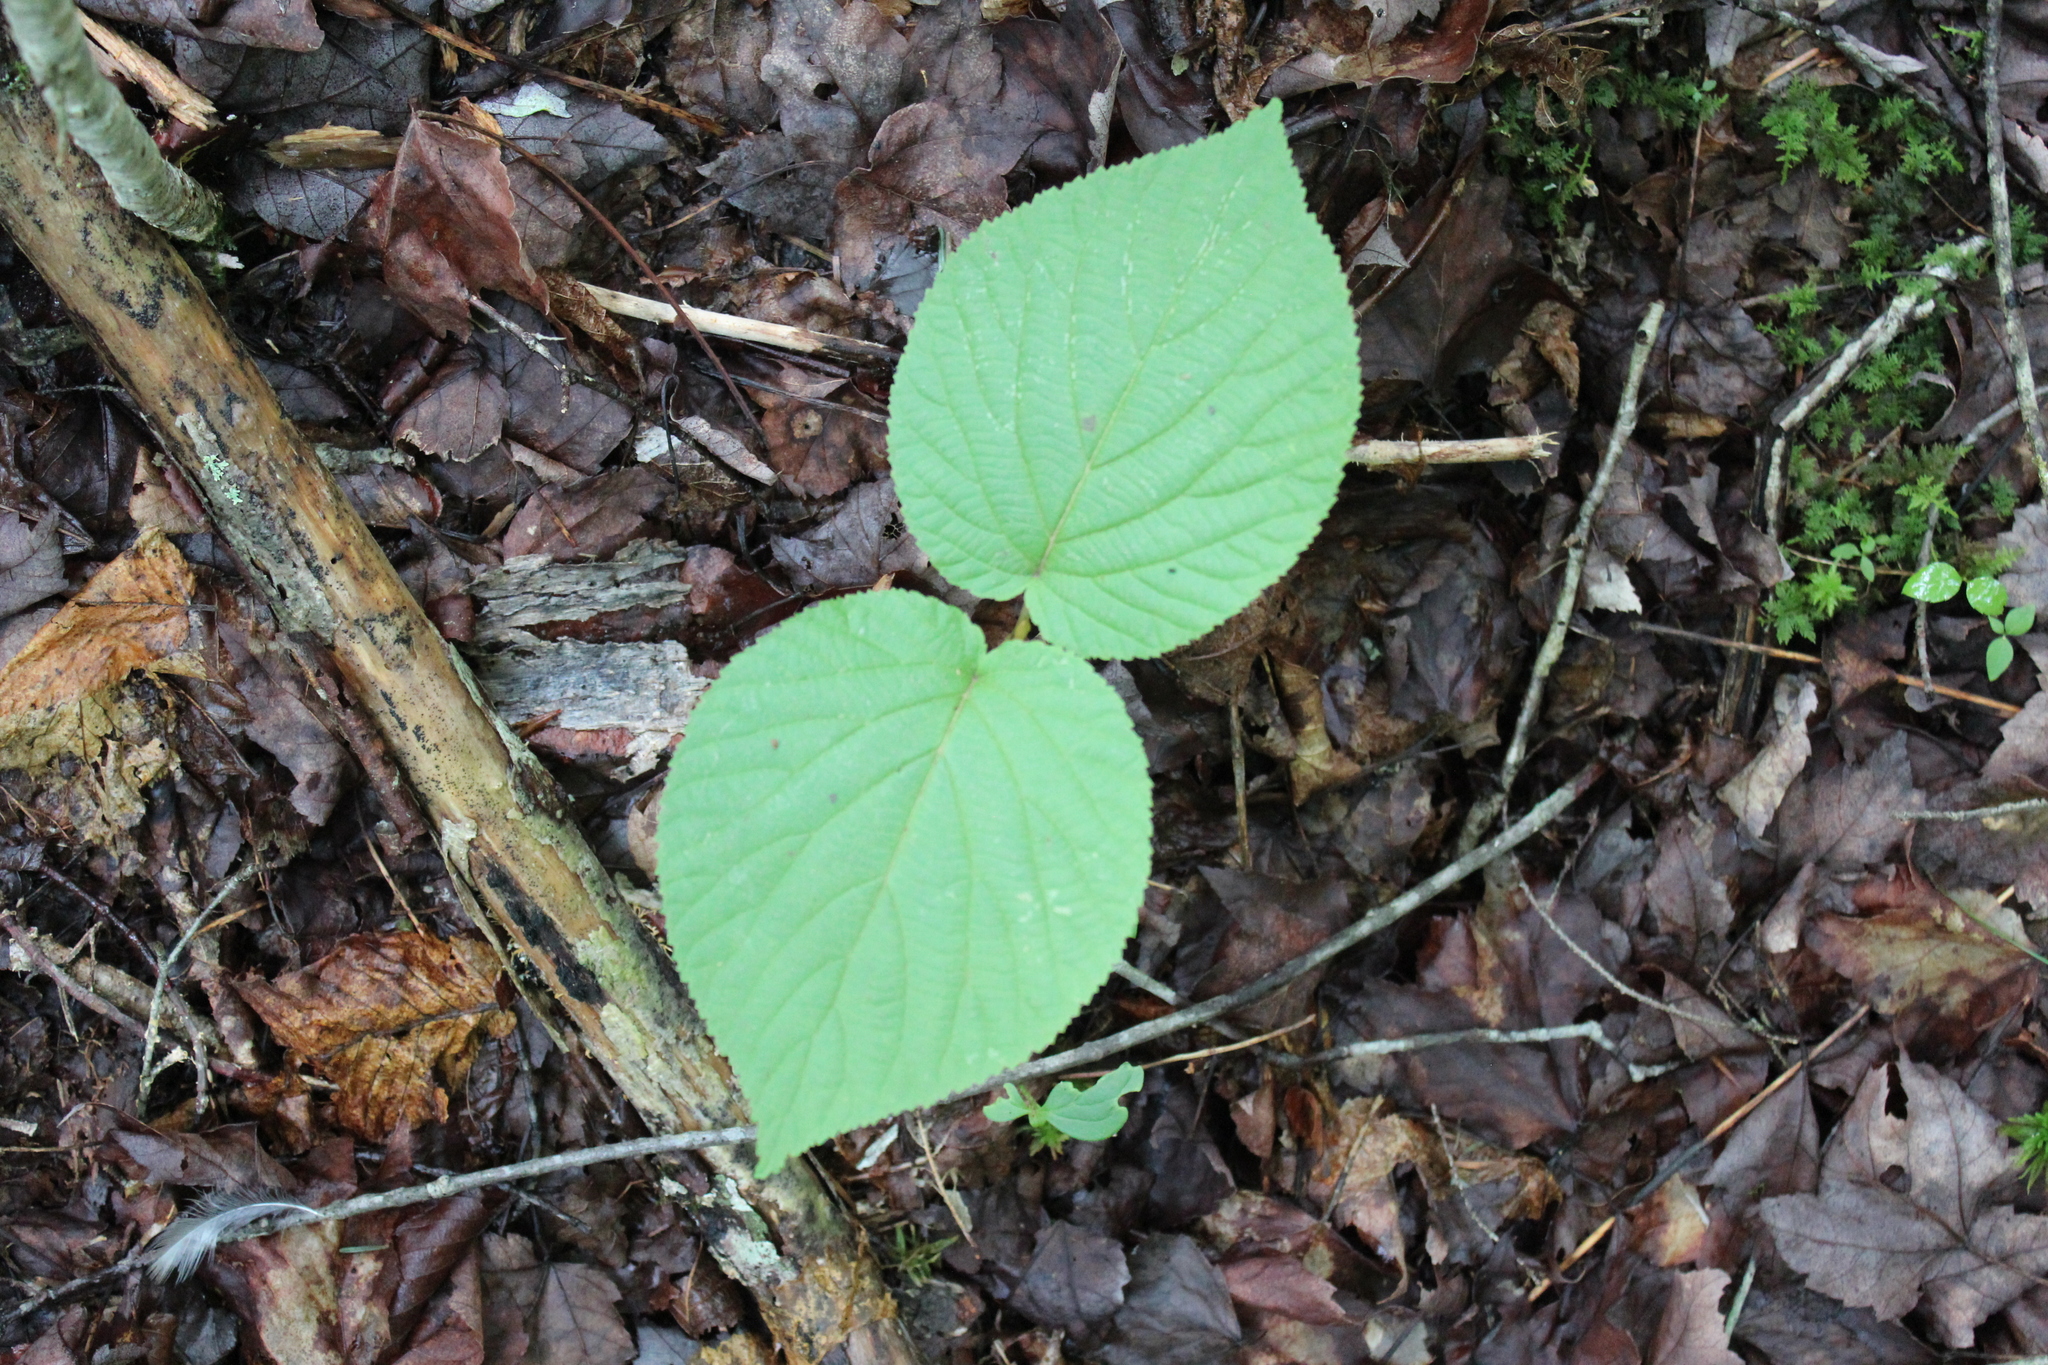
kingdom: Plantae
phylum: Tracheophyta
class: Magnoliopsida
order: Dipsacales
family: Viburnaceae
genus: Viburnum
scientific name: Viburnum lantanoides
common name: Hobblebush
